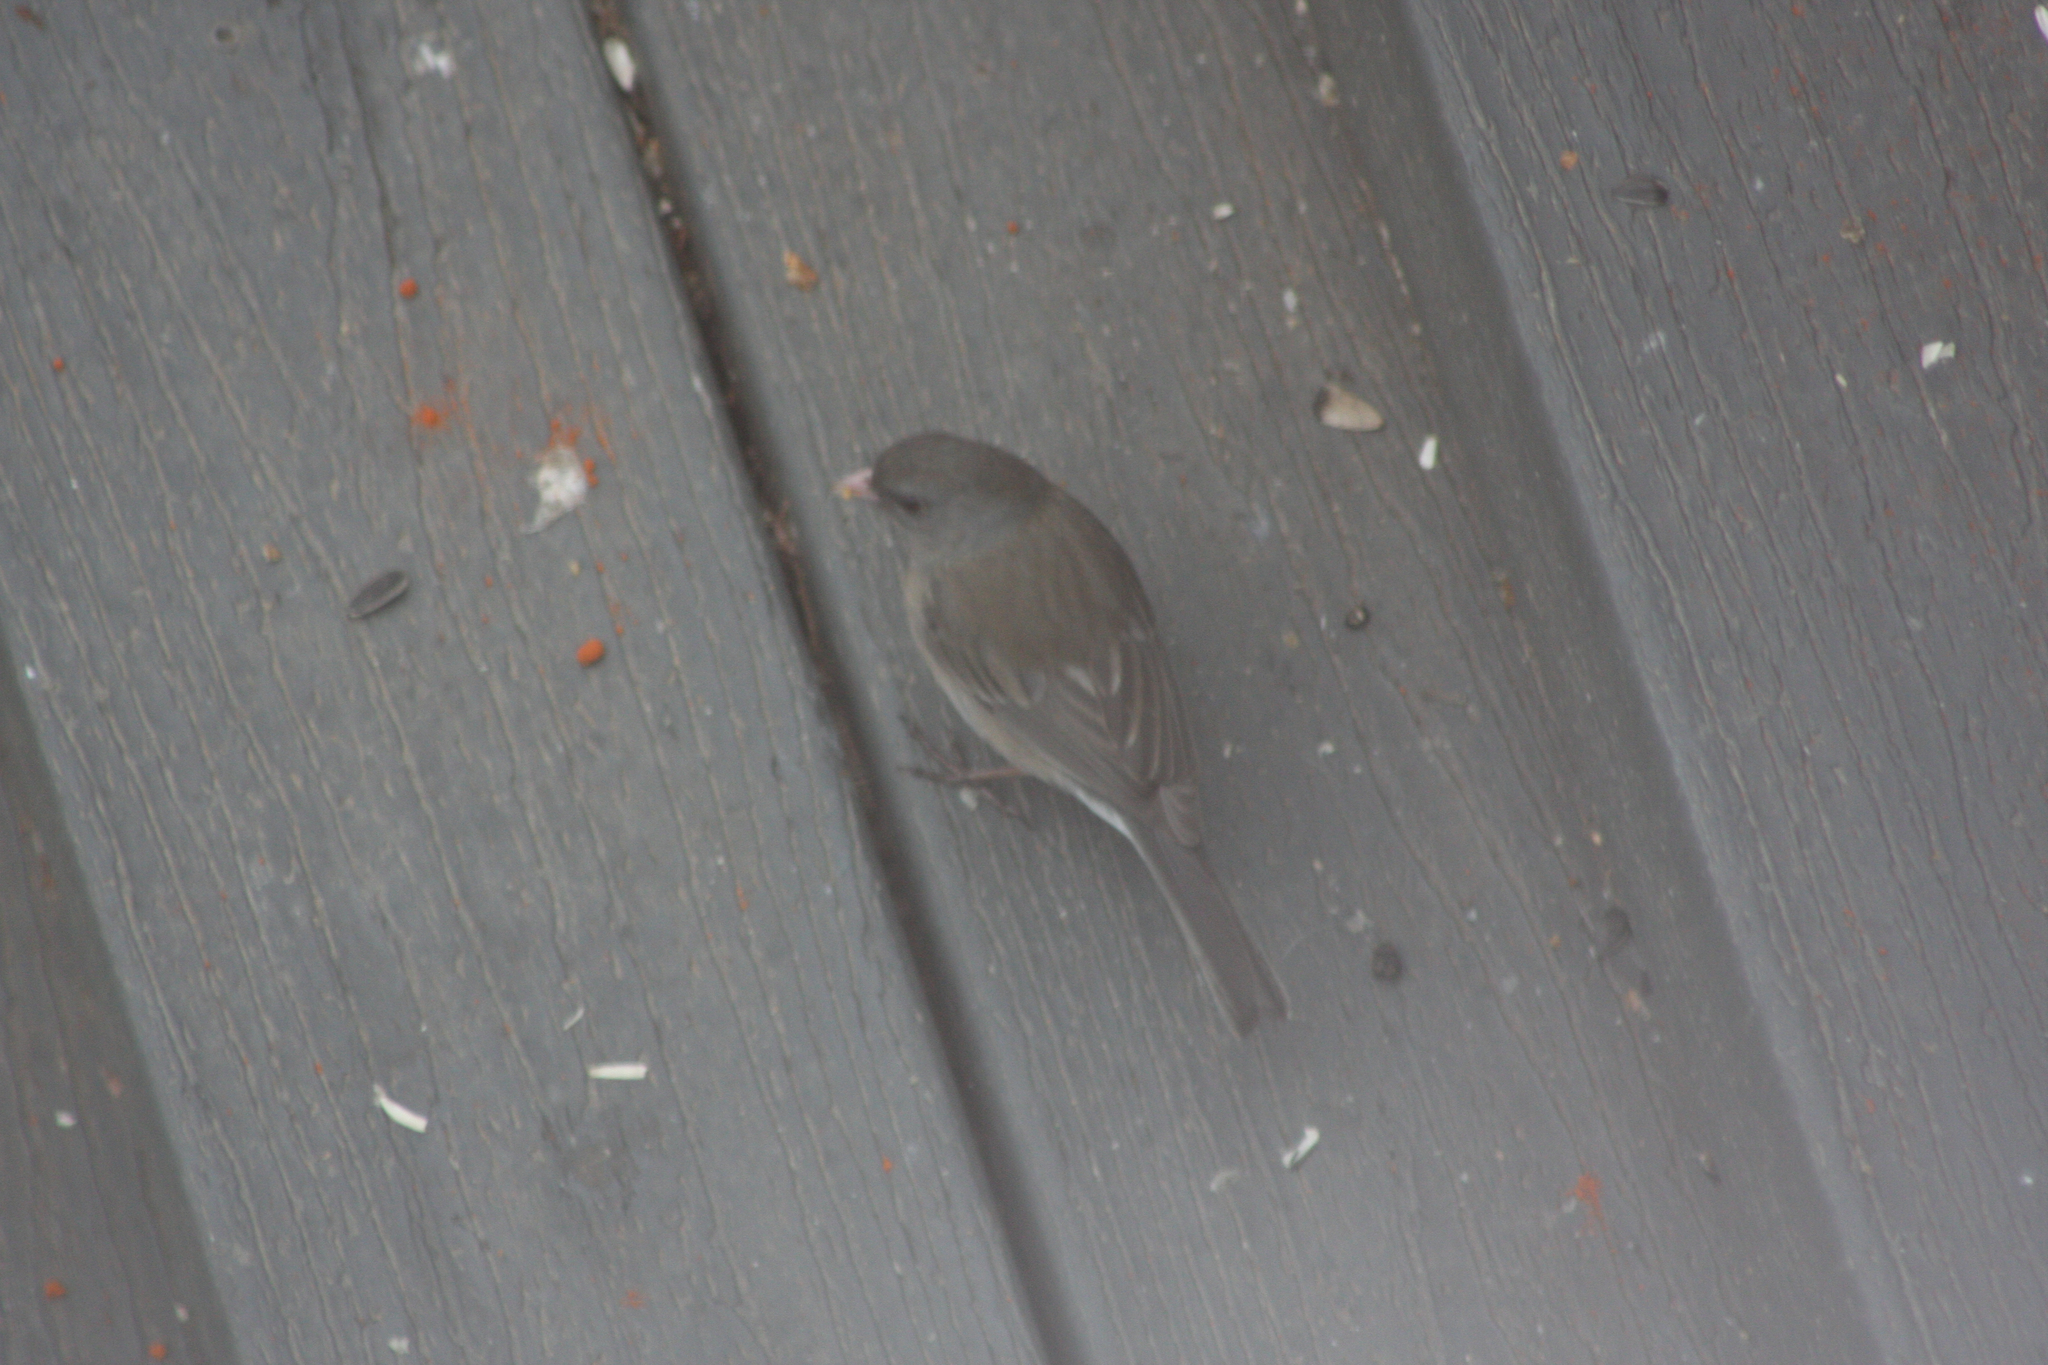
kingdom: Animalia
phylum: Chordata
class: Aves
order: Passeriformes
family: Passerellidae
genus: Junco
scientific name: Junco hyemalis
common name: Dark-eyed junco
